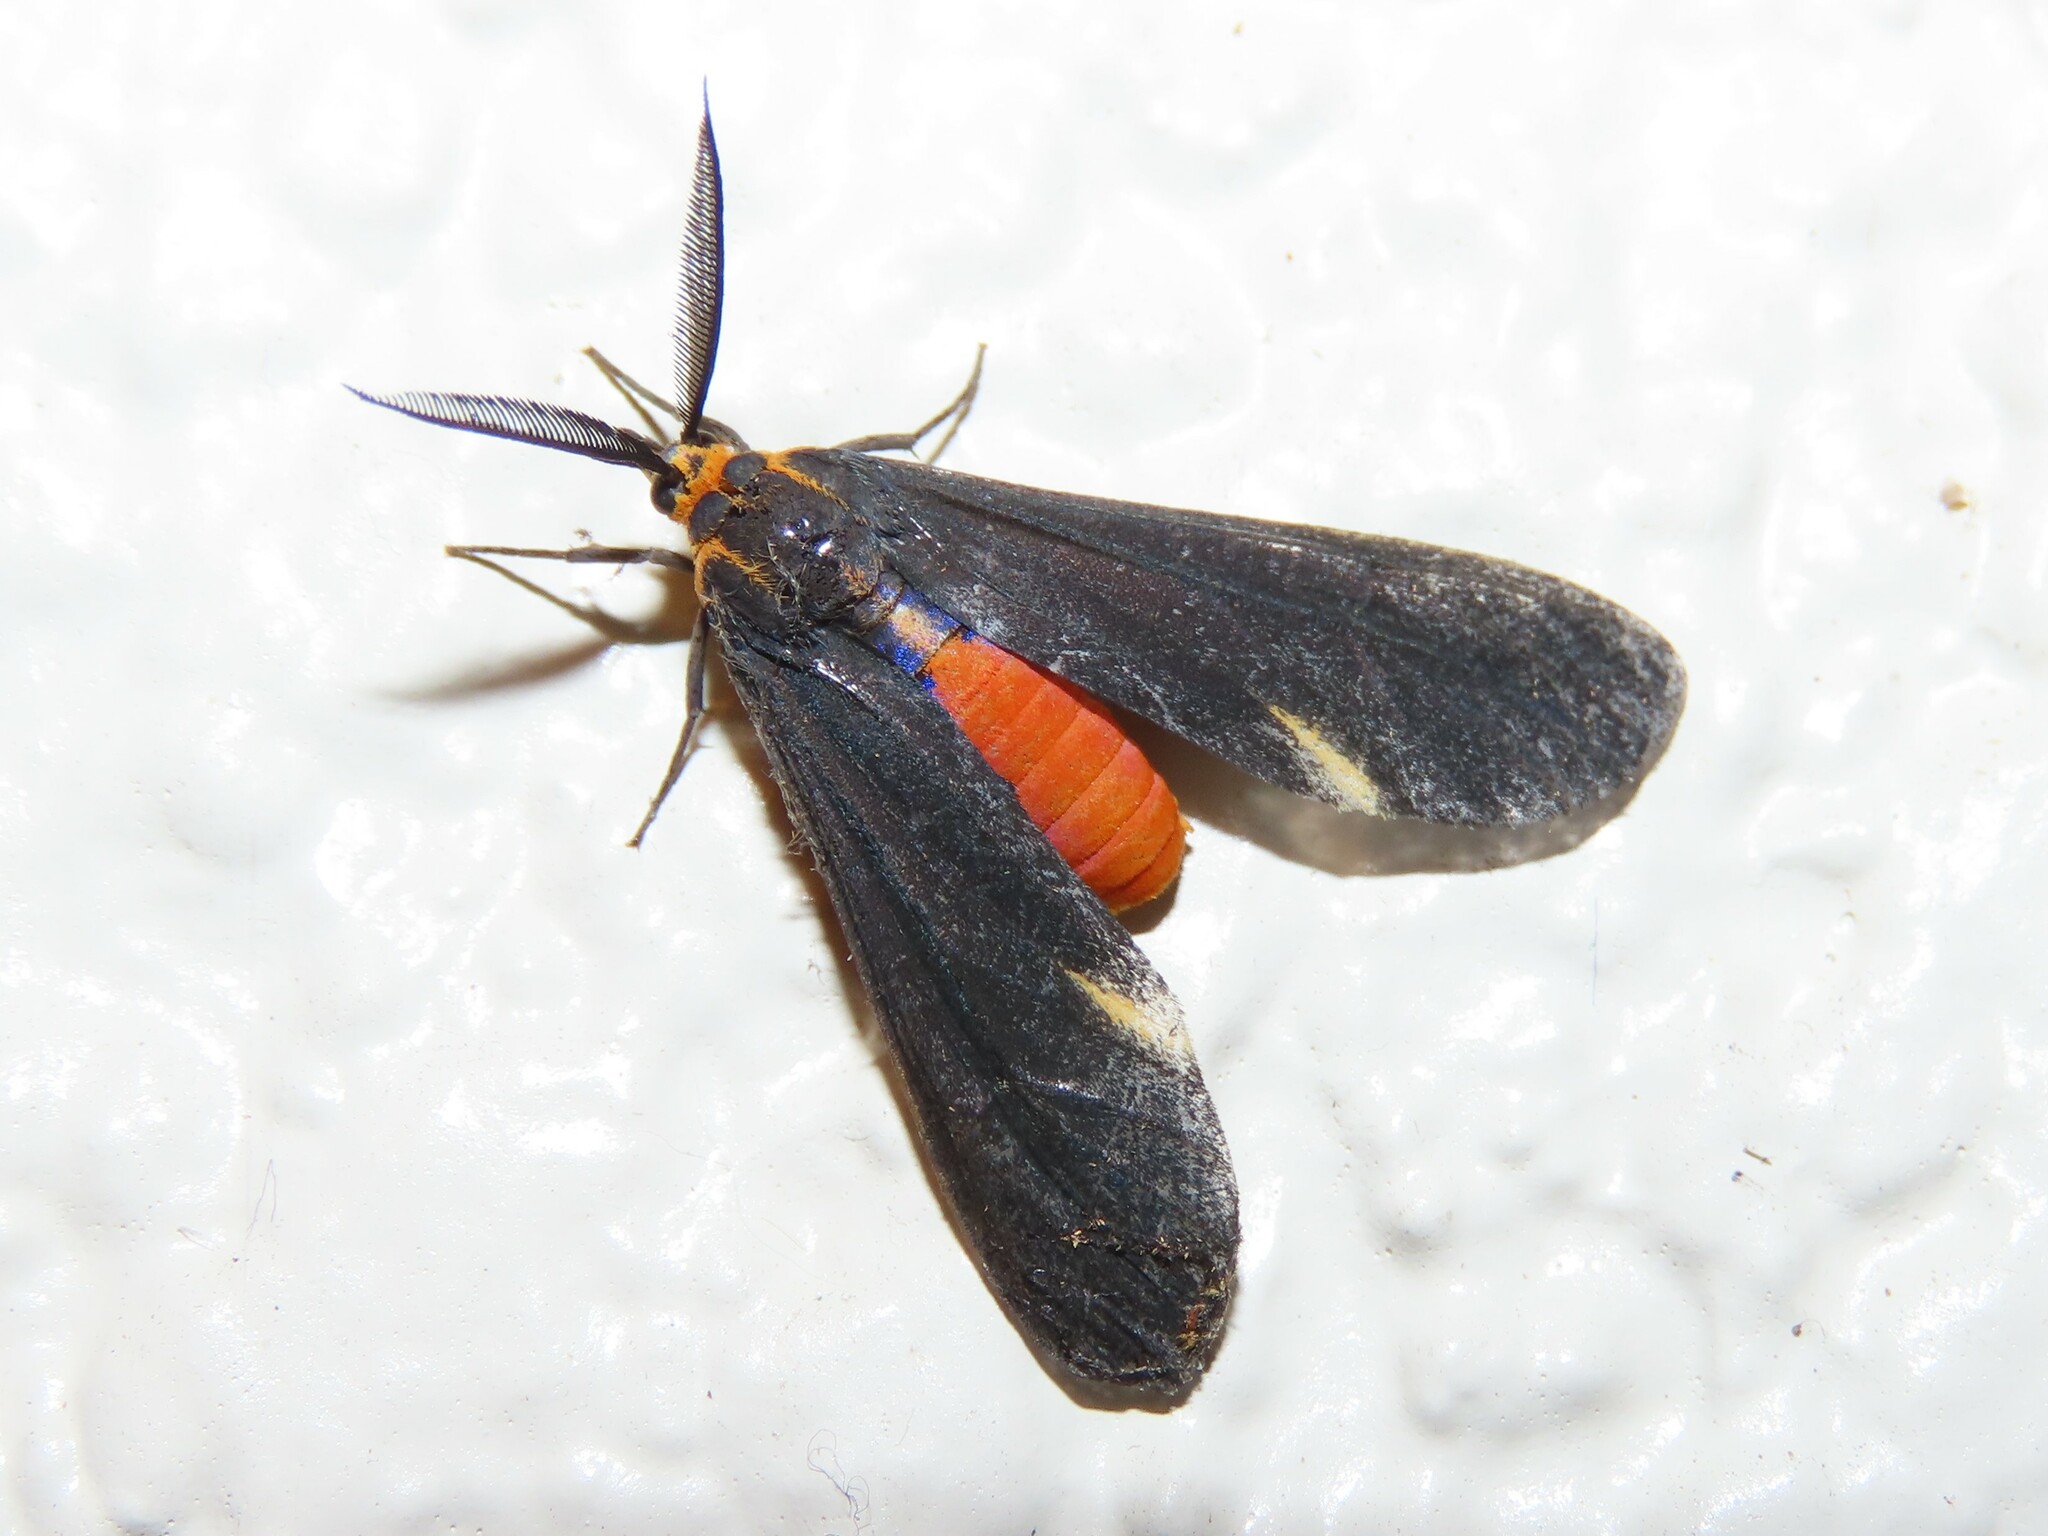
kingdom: Animalia
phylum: Arthropoda
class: Insecta
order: Lepidoptera
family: Erebidae
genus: Dahana
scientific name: Dahana atripennis
